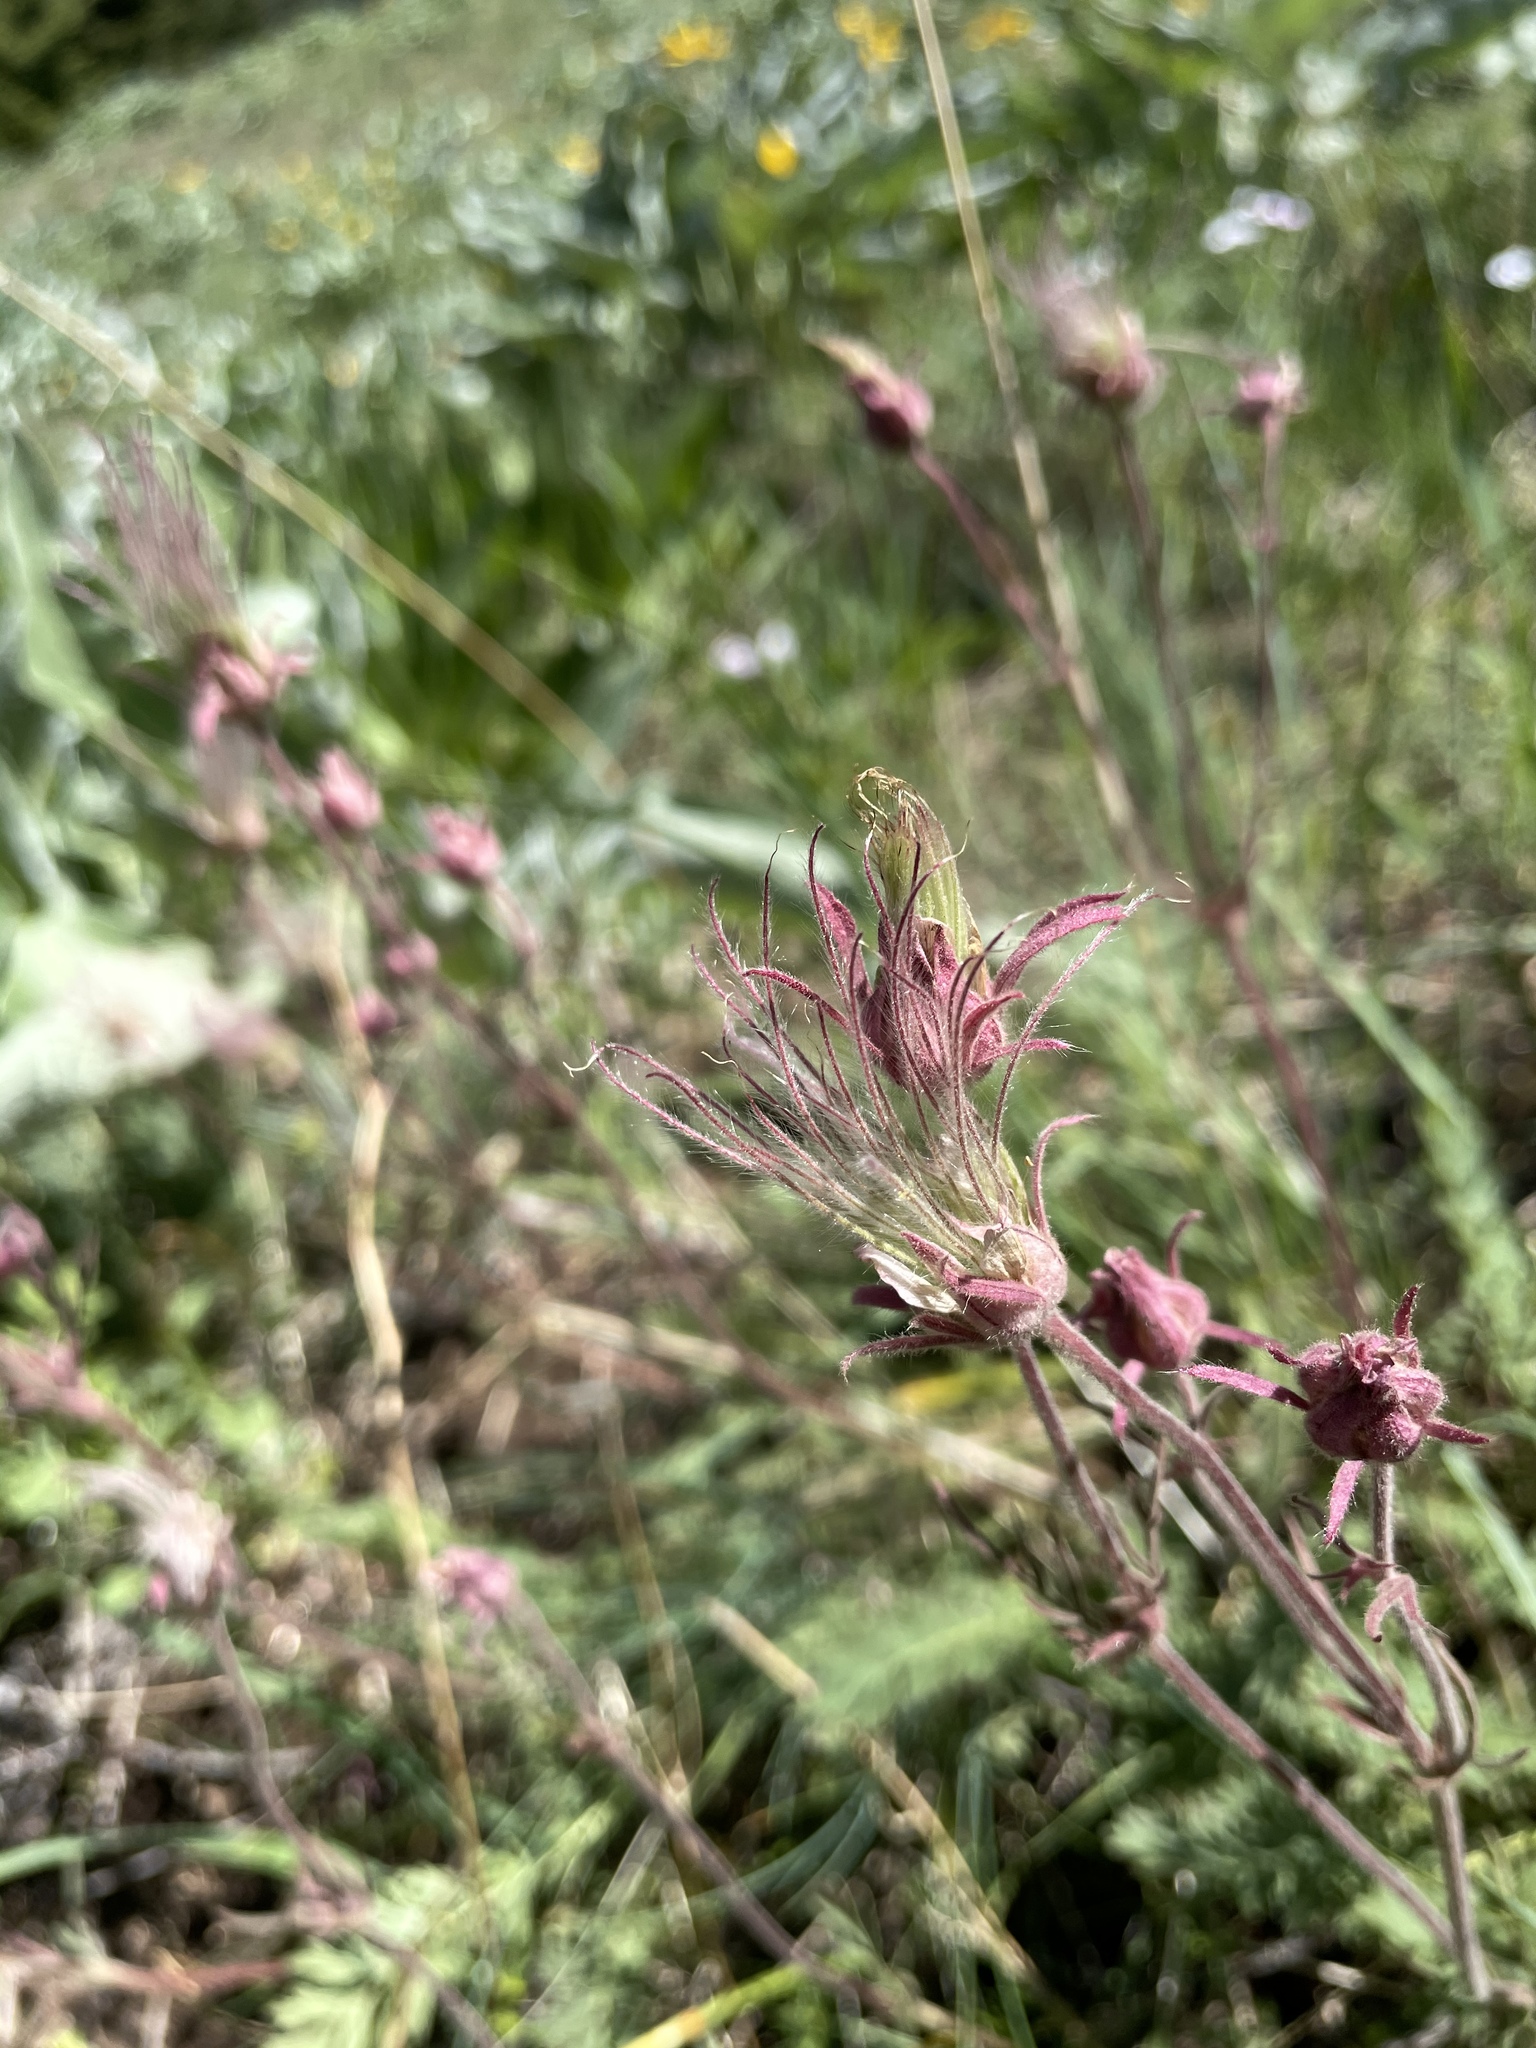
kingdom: Plantae
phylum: Tracheophyta
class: Magnoliopsida
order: Rosales
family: Rosaceae
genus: Geum
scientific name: Geum triflorum
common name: Old man's whiskers
